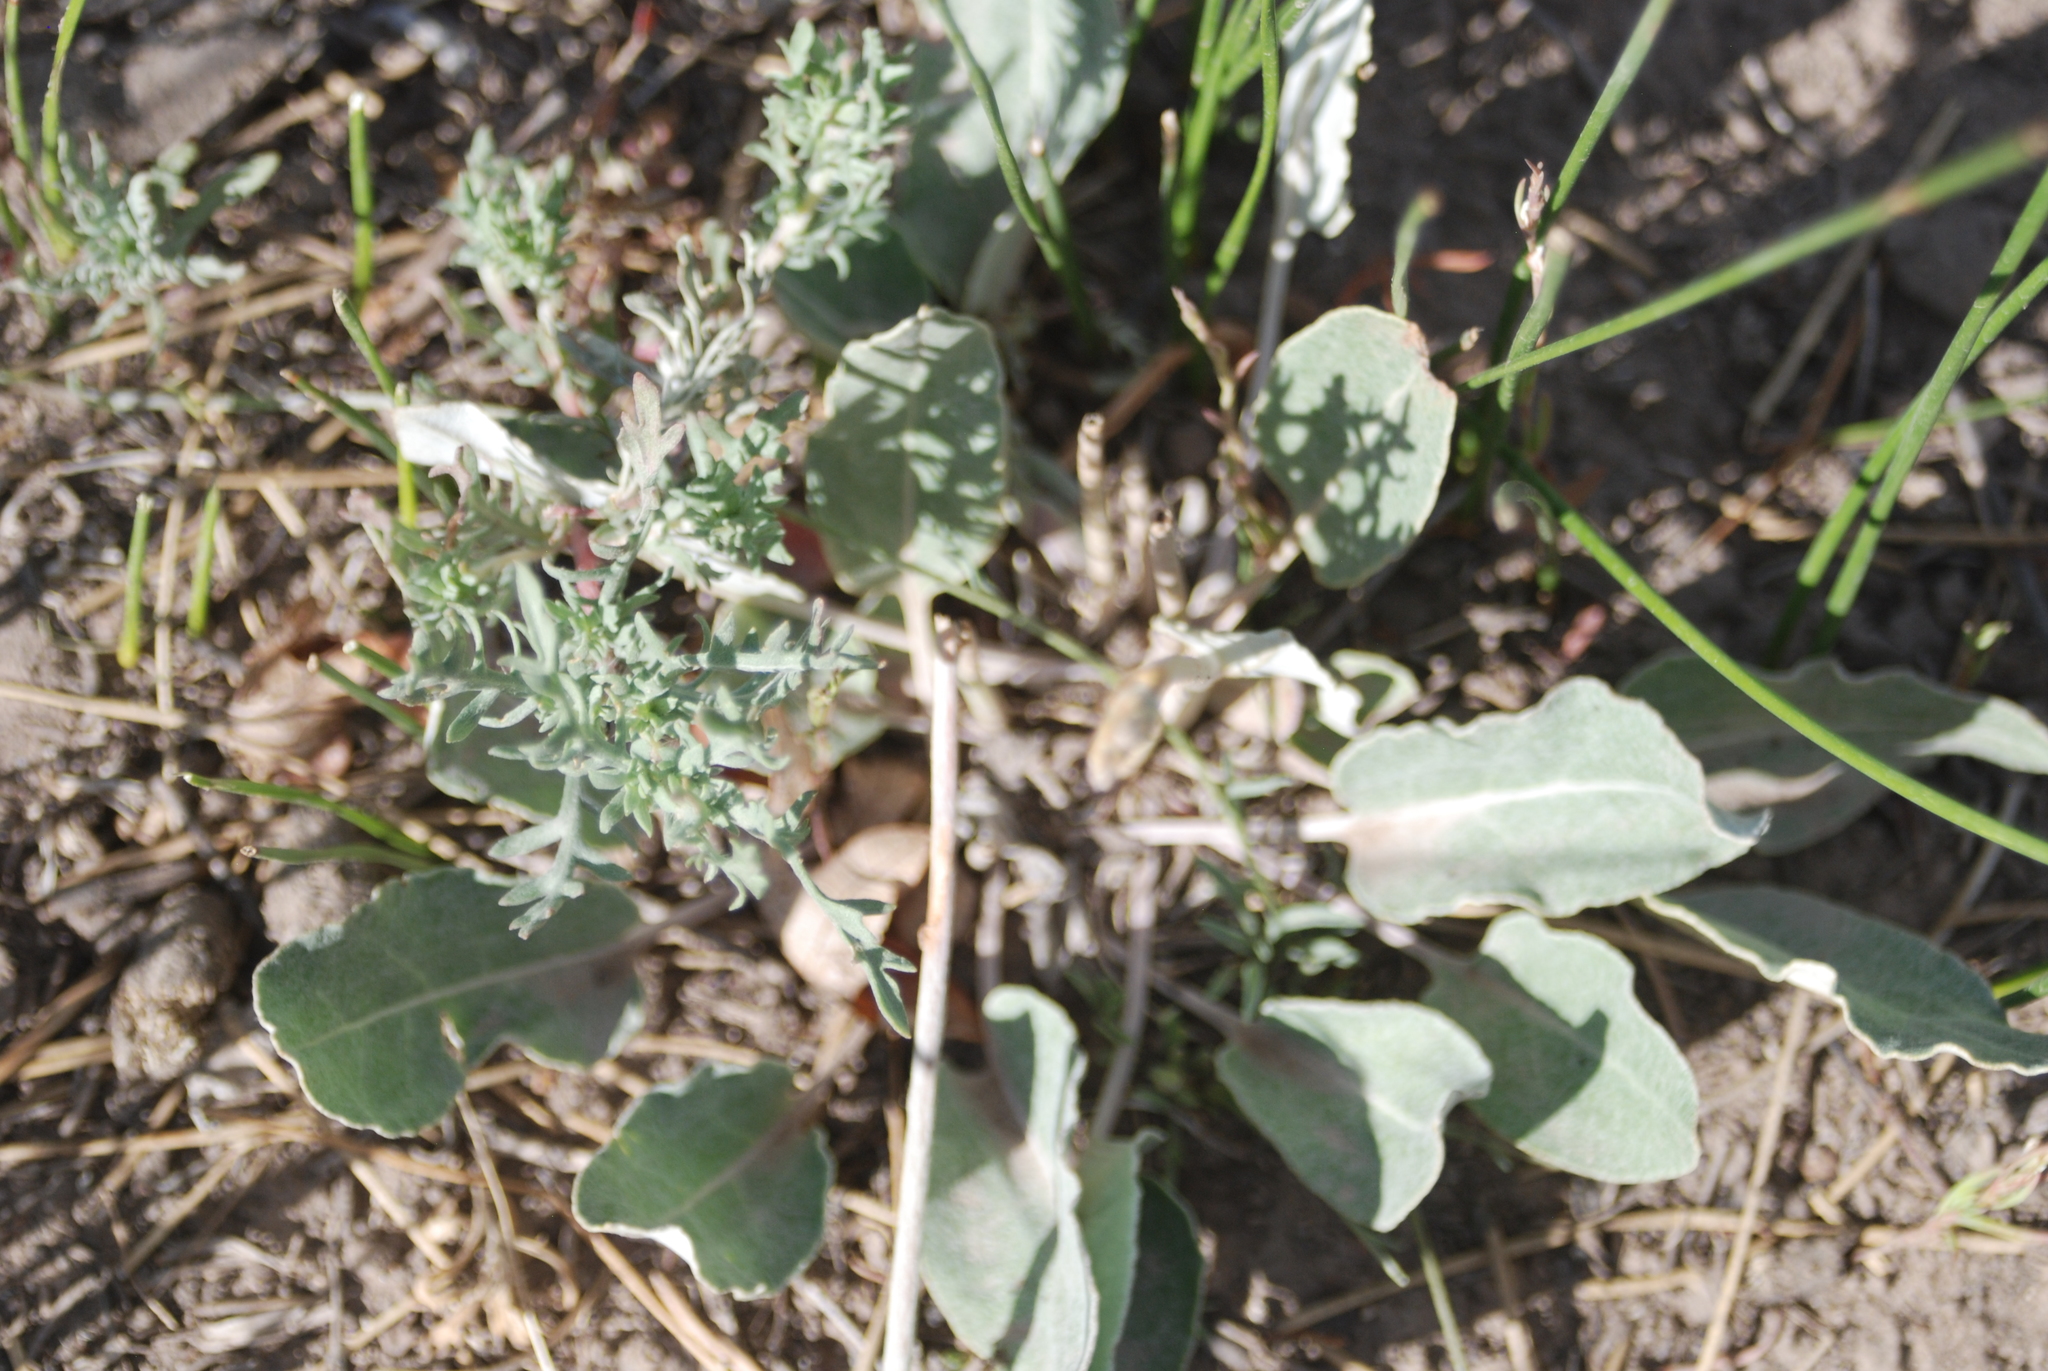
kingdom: Plantae
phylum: Tracheophyta
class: Magnoliopsida
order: Piperales
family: Saururaceae
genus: Anemopsis
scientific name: Anemopsis californica
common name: Apache-beads
